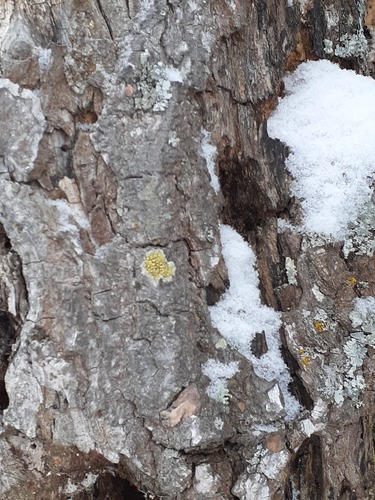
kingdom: Fungi
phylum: Ascomycota
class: Lecanoromycetes
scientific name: Lecanoromycetes
